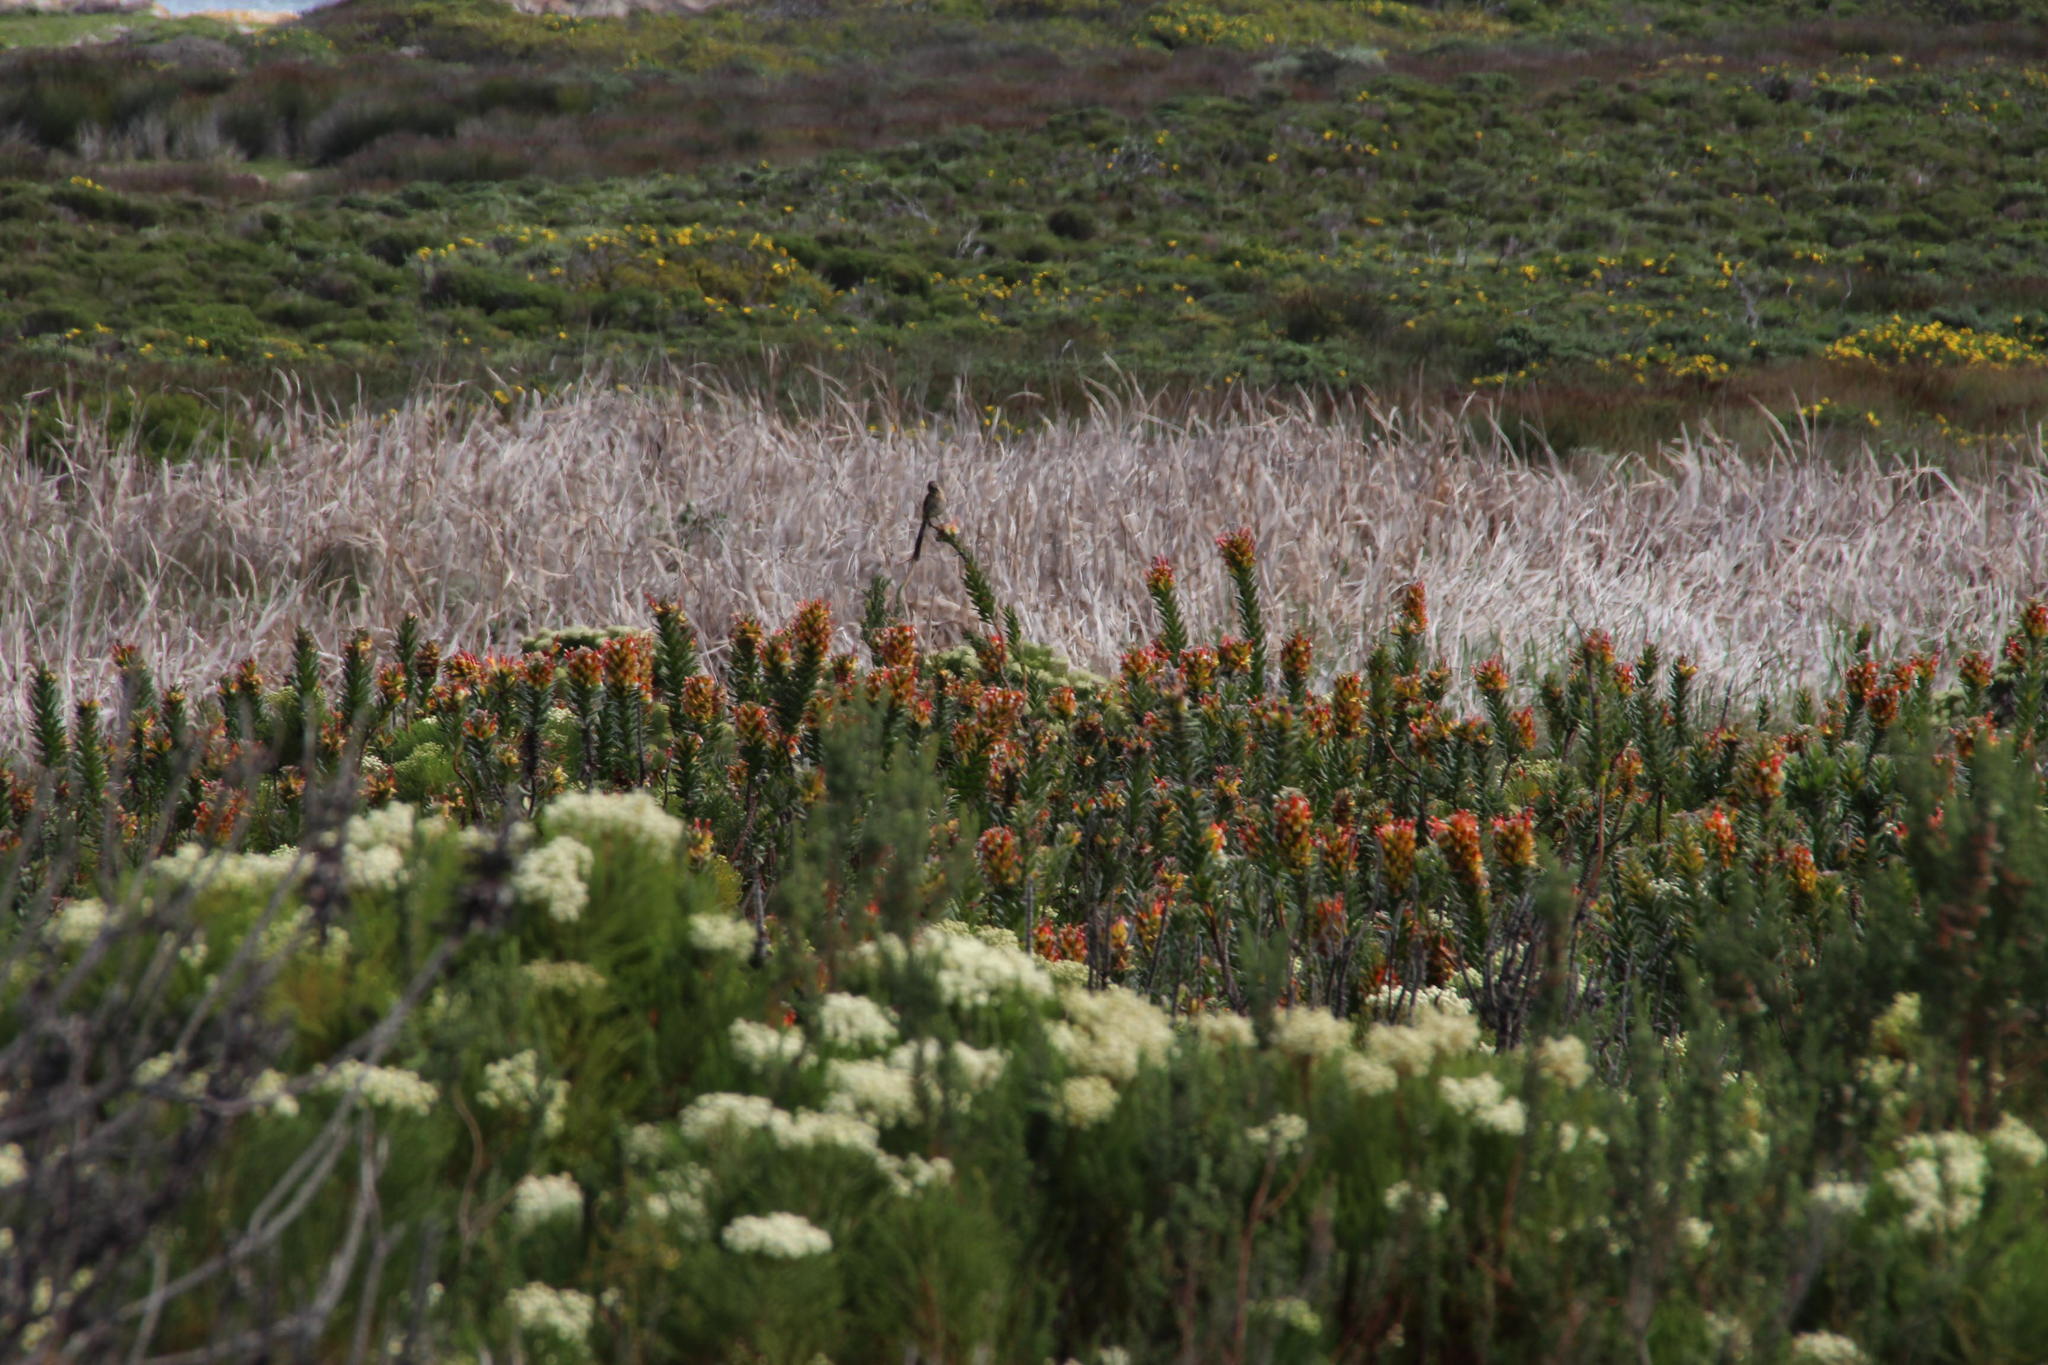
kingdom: Animalia
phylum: Chordata
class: Aves
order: Passeriformes
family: Promeropidae
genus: Promerops
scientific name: Promerops cafer
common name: Cape sugarbird
